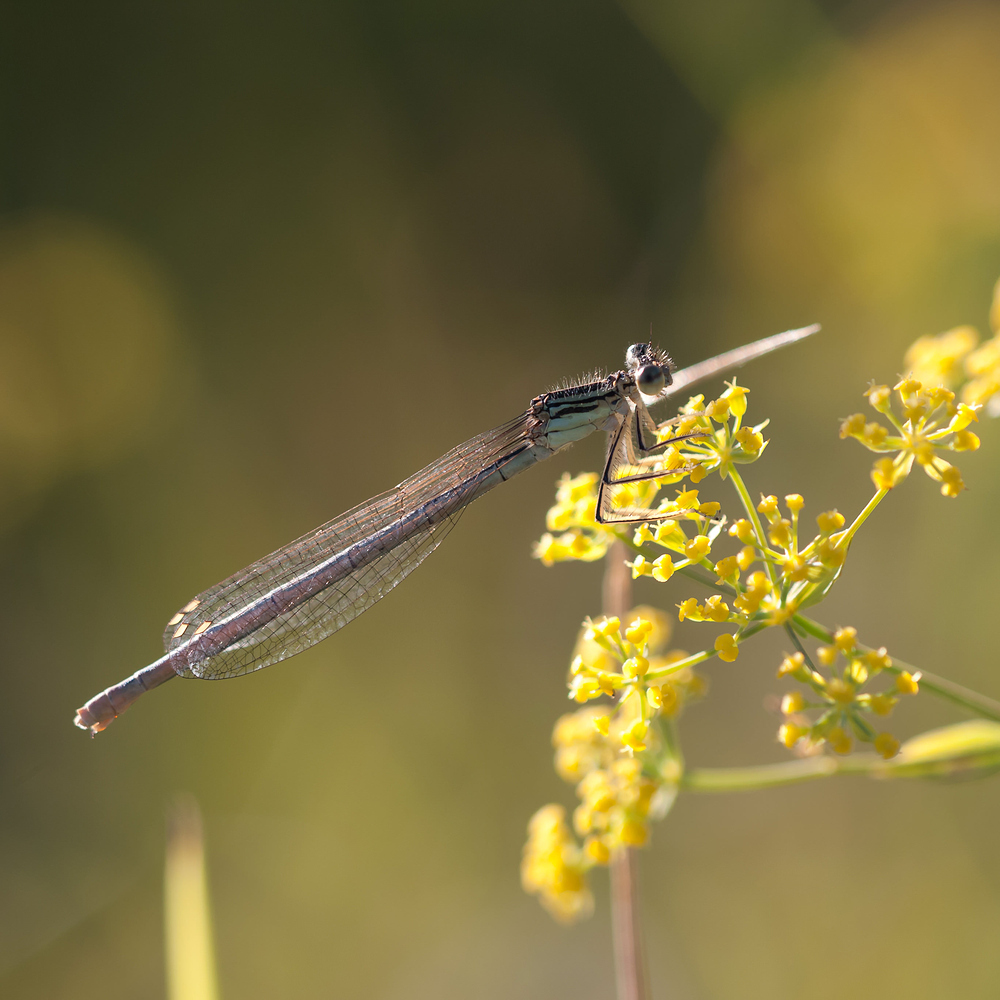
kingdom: Animalia
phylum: Arthropoda
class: Insecta
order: Odonata
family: Platycnemididae
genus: Platycnemis
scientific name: Platycnemis pennipes
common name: White-legged damselfly
